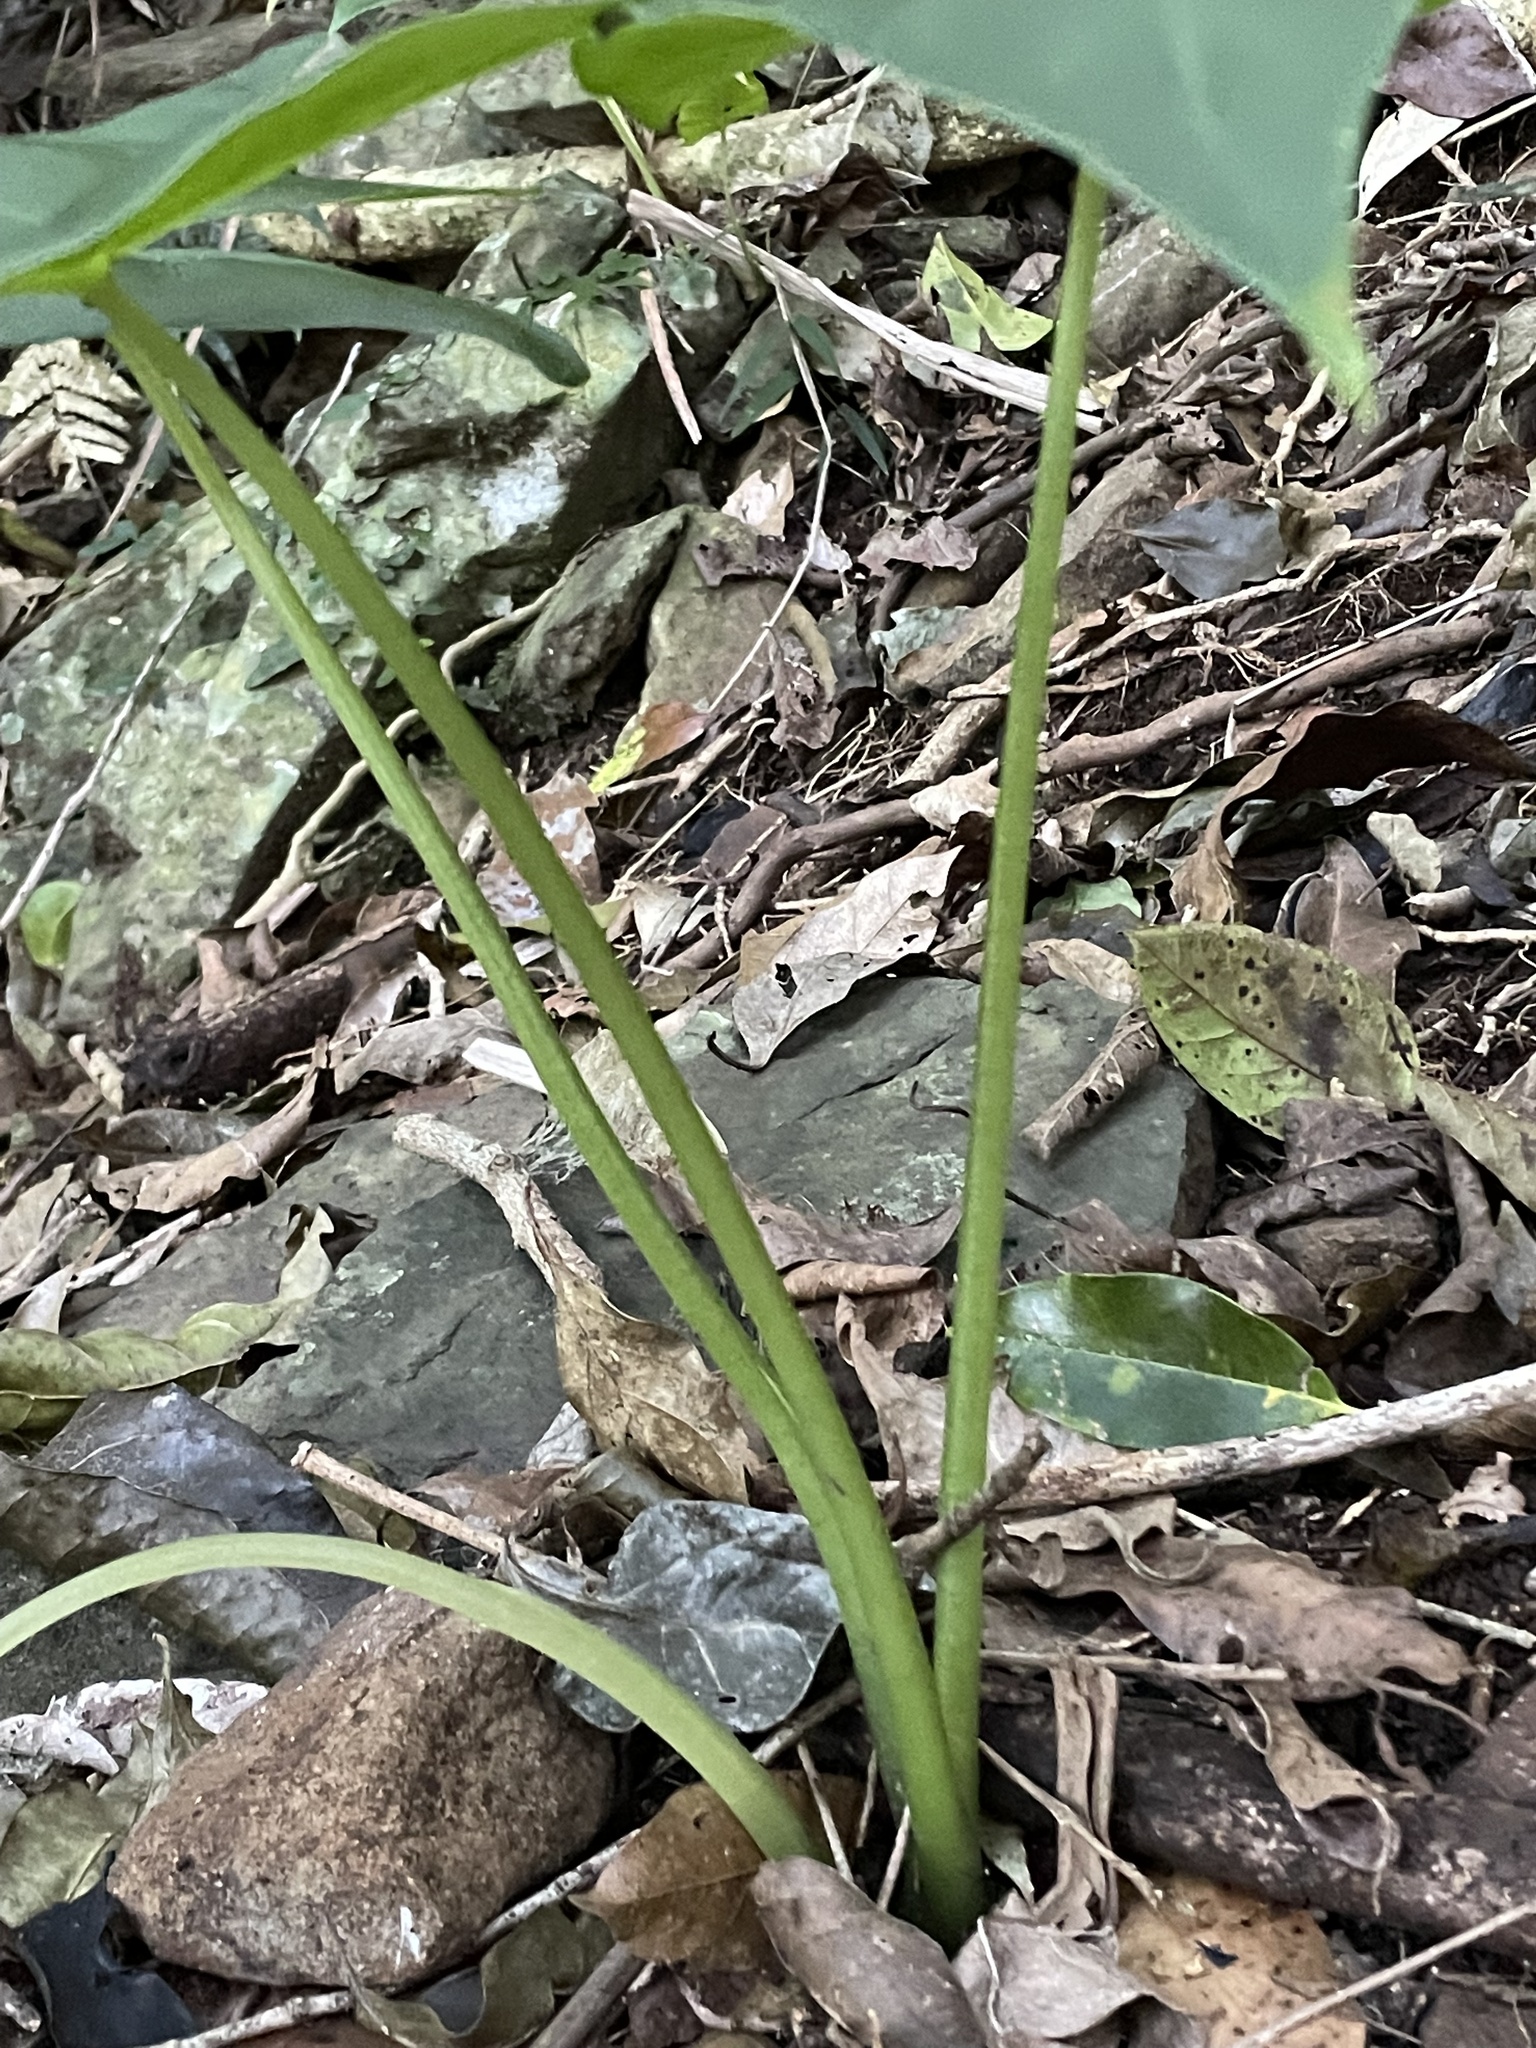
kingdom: Plantae
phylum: Tracheophyta
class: Liliopsida
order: Alismatales
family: Araceae
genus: Alocasia
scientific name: Alocasia brisbanensis
